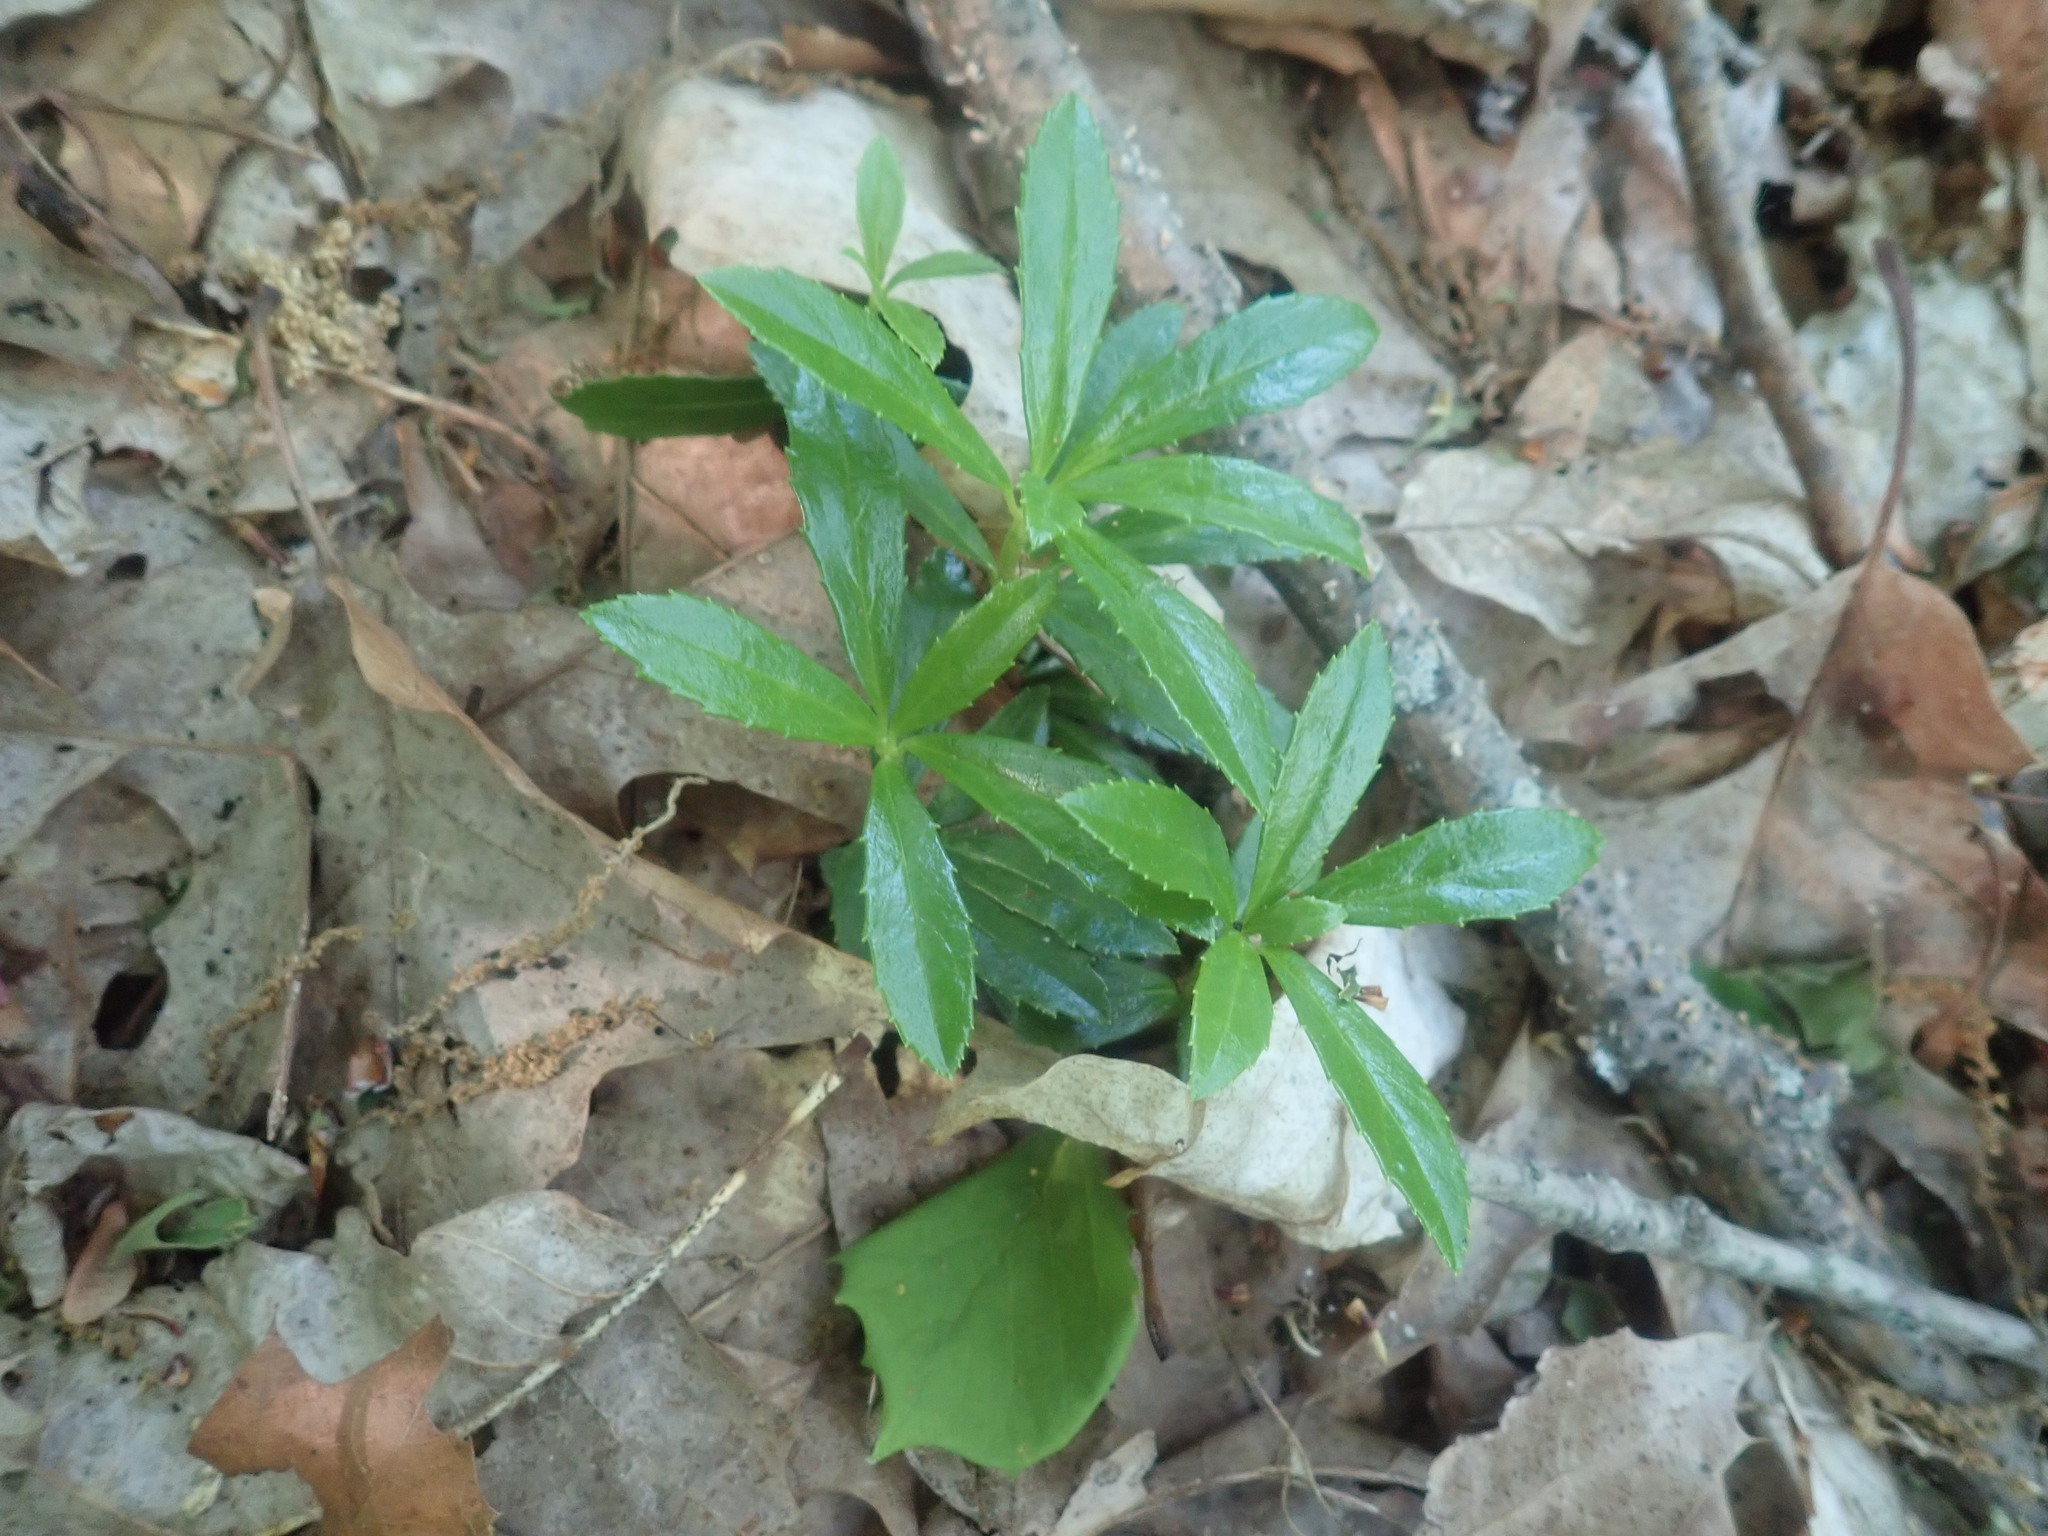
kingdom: Plantae
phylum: Tracheophyta
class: Magnoliopsida
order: Ericales
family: Ericaceae
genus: Chimaphila
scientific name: Chimaphila umbellata
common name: Pipsissewa
